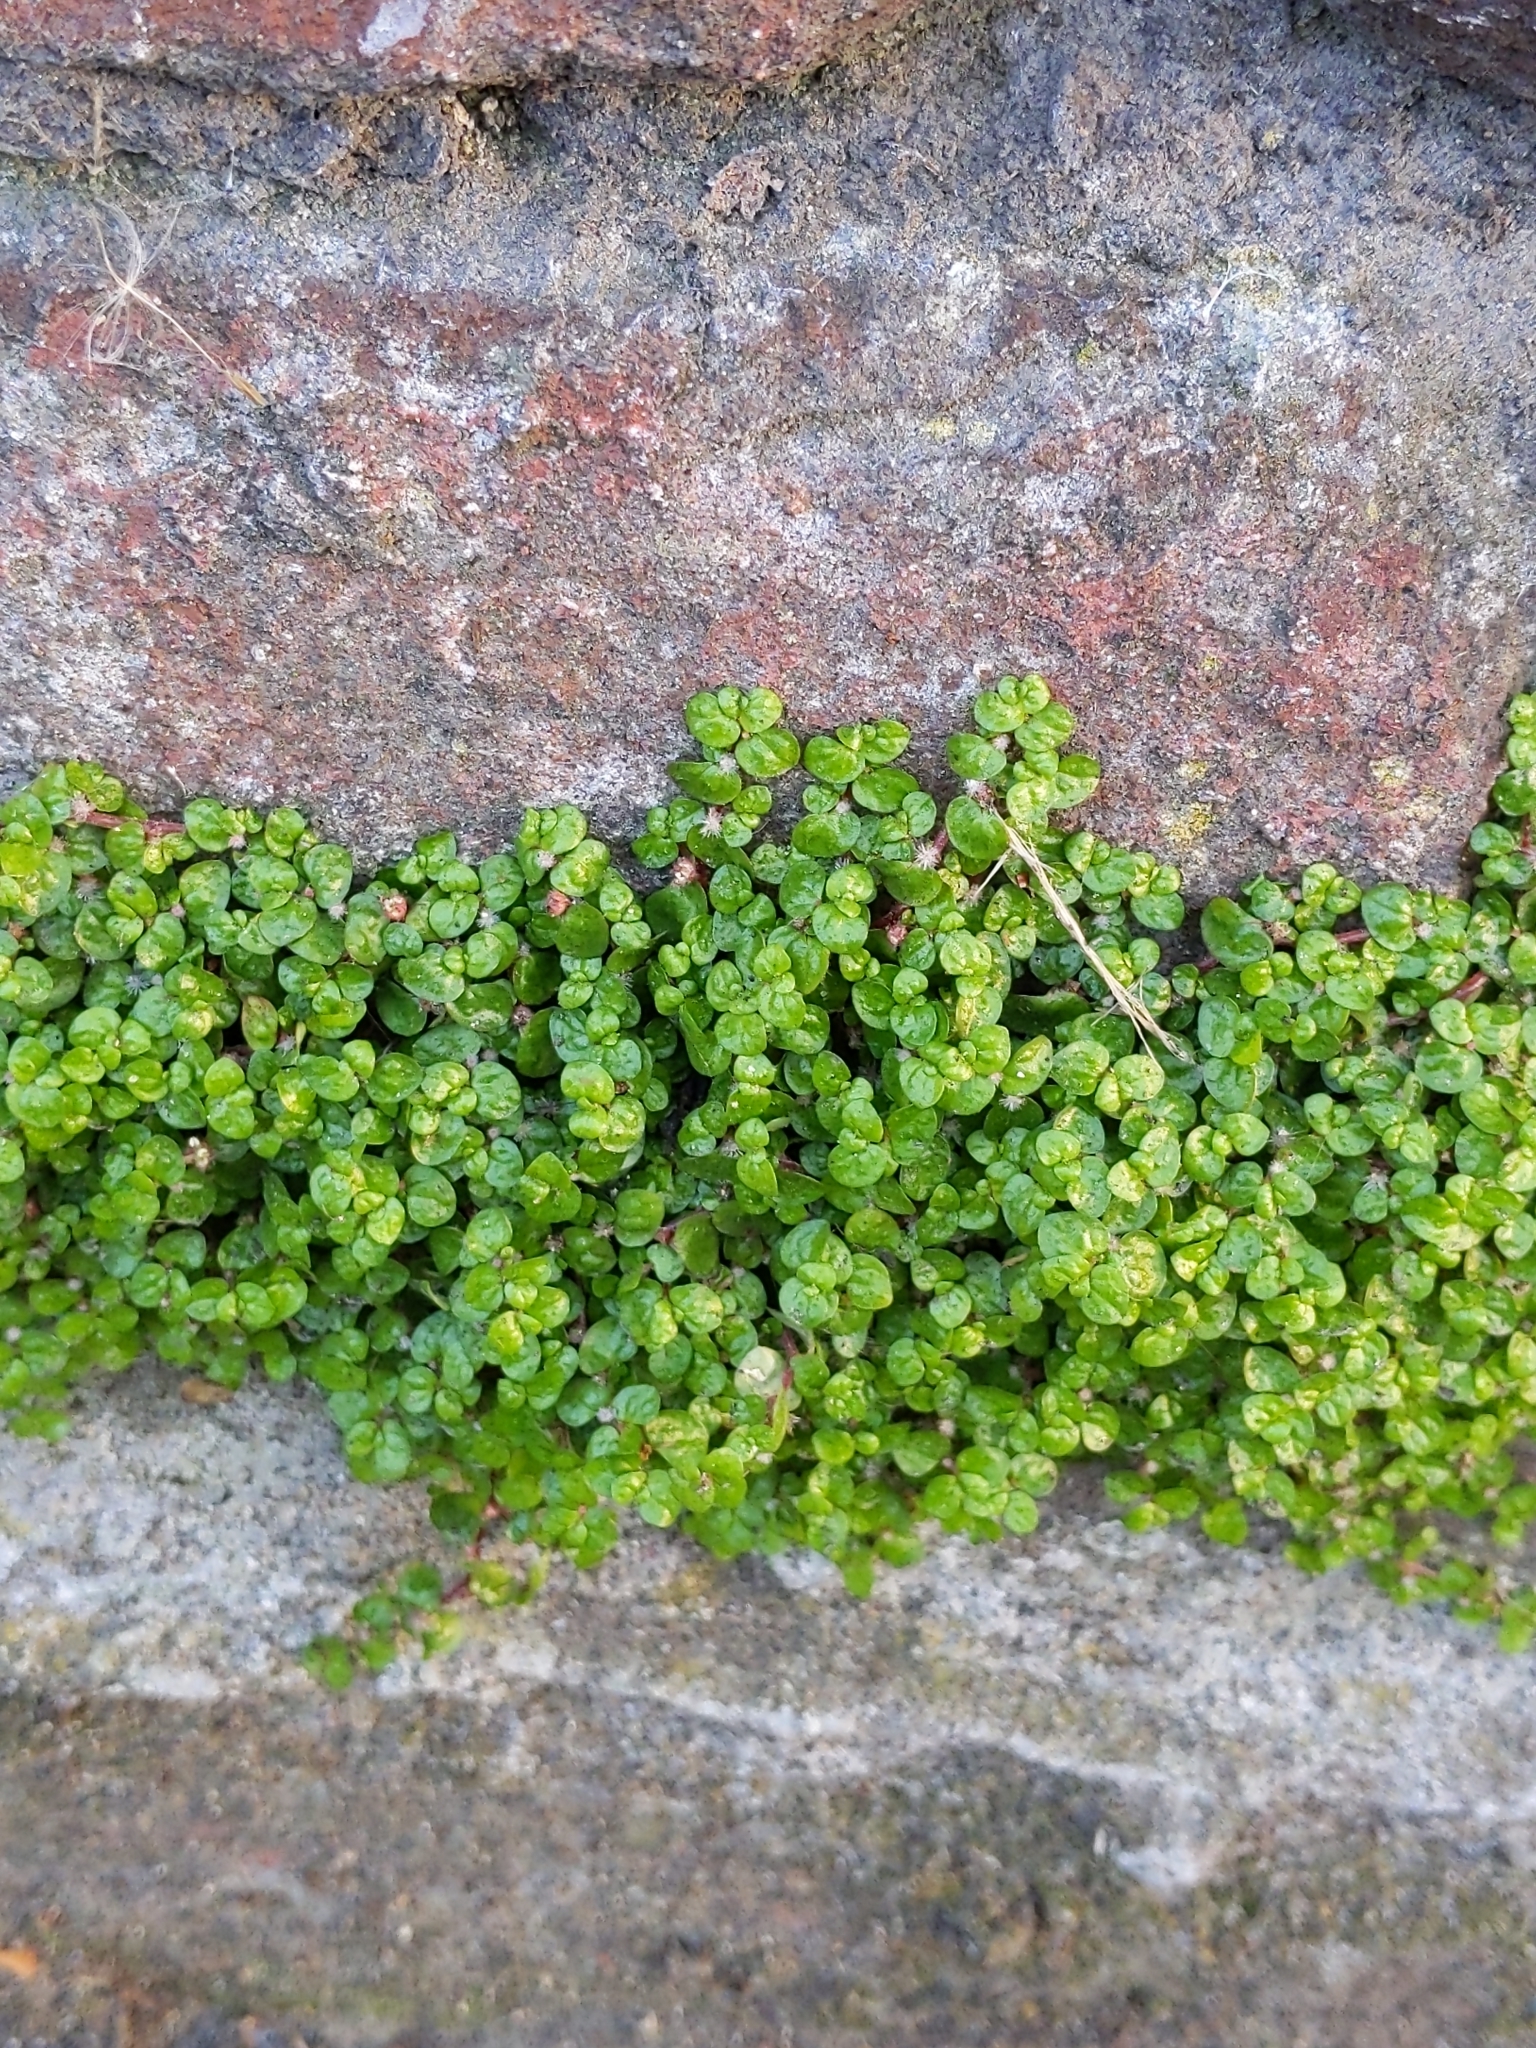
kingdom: Plantae
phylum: Tracheophyta
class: Magnoliopsida
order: Rosales
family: Urticaceae
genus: Soleirolia
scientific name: Soleirolia soleirolii
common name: Mind-your-own-business
